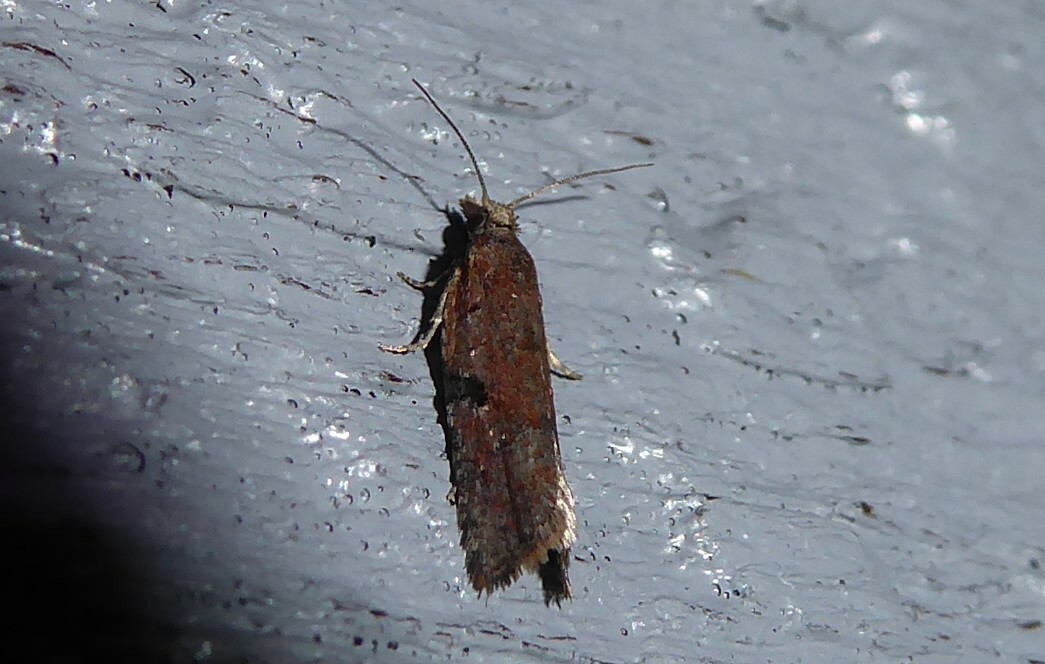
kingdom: Animalia
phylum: Arthropoda
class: Insecta
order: Lepidoptera
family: Tortricidae
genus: Capua
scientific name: Capua semiferana
